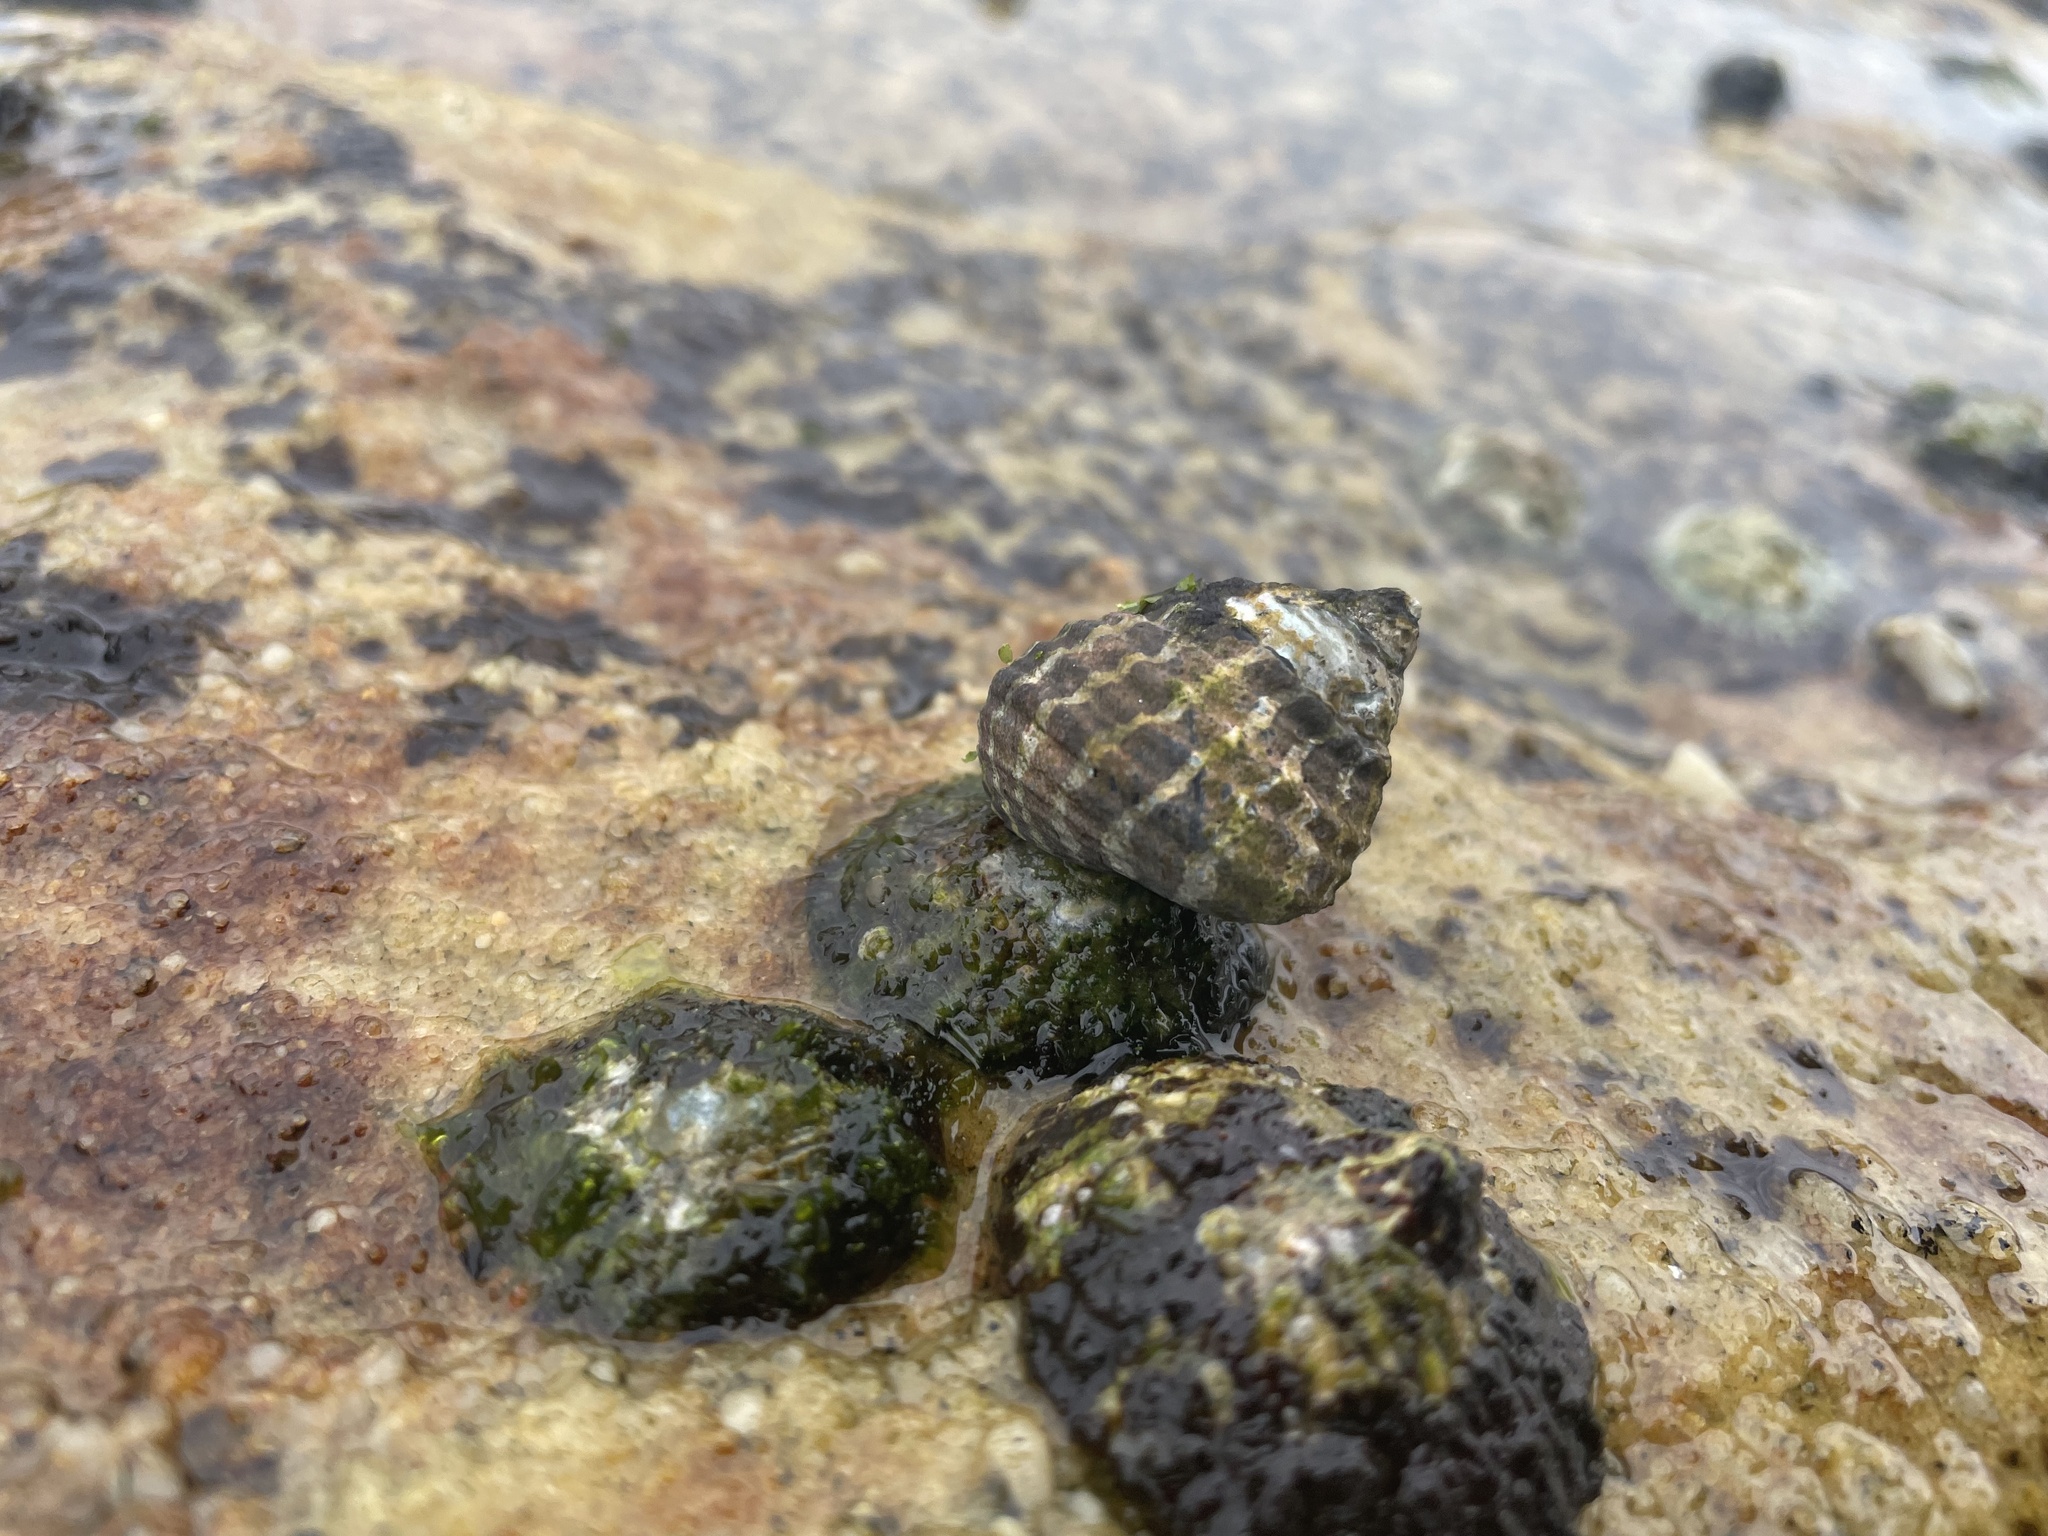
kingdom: Animalia
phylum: Mollusca
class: Gastropoda
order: Trochida
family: Trochidae
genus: Austrocochlea
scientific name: Austrocochlea porcata
